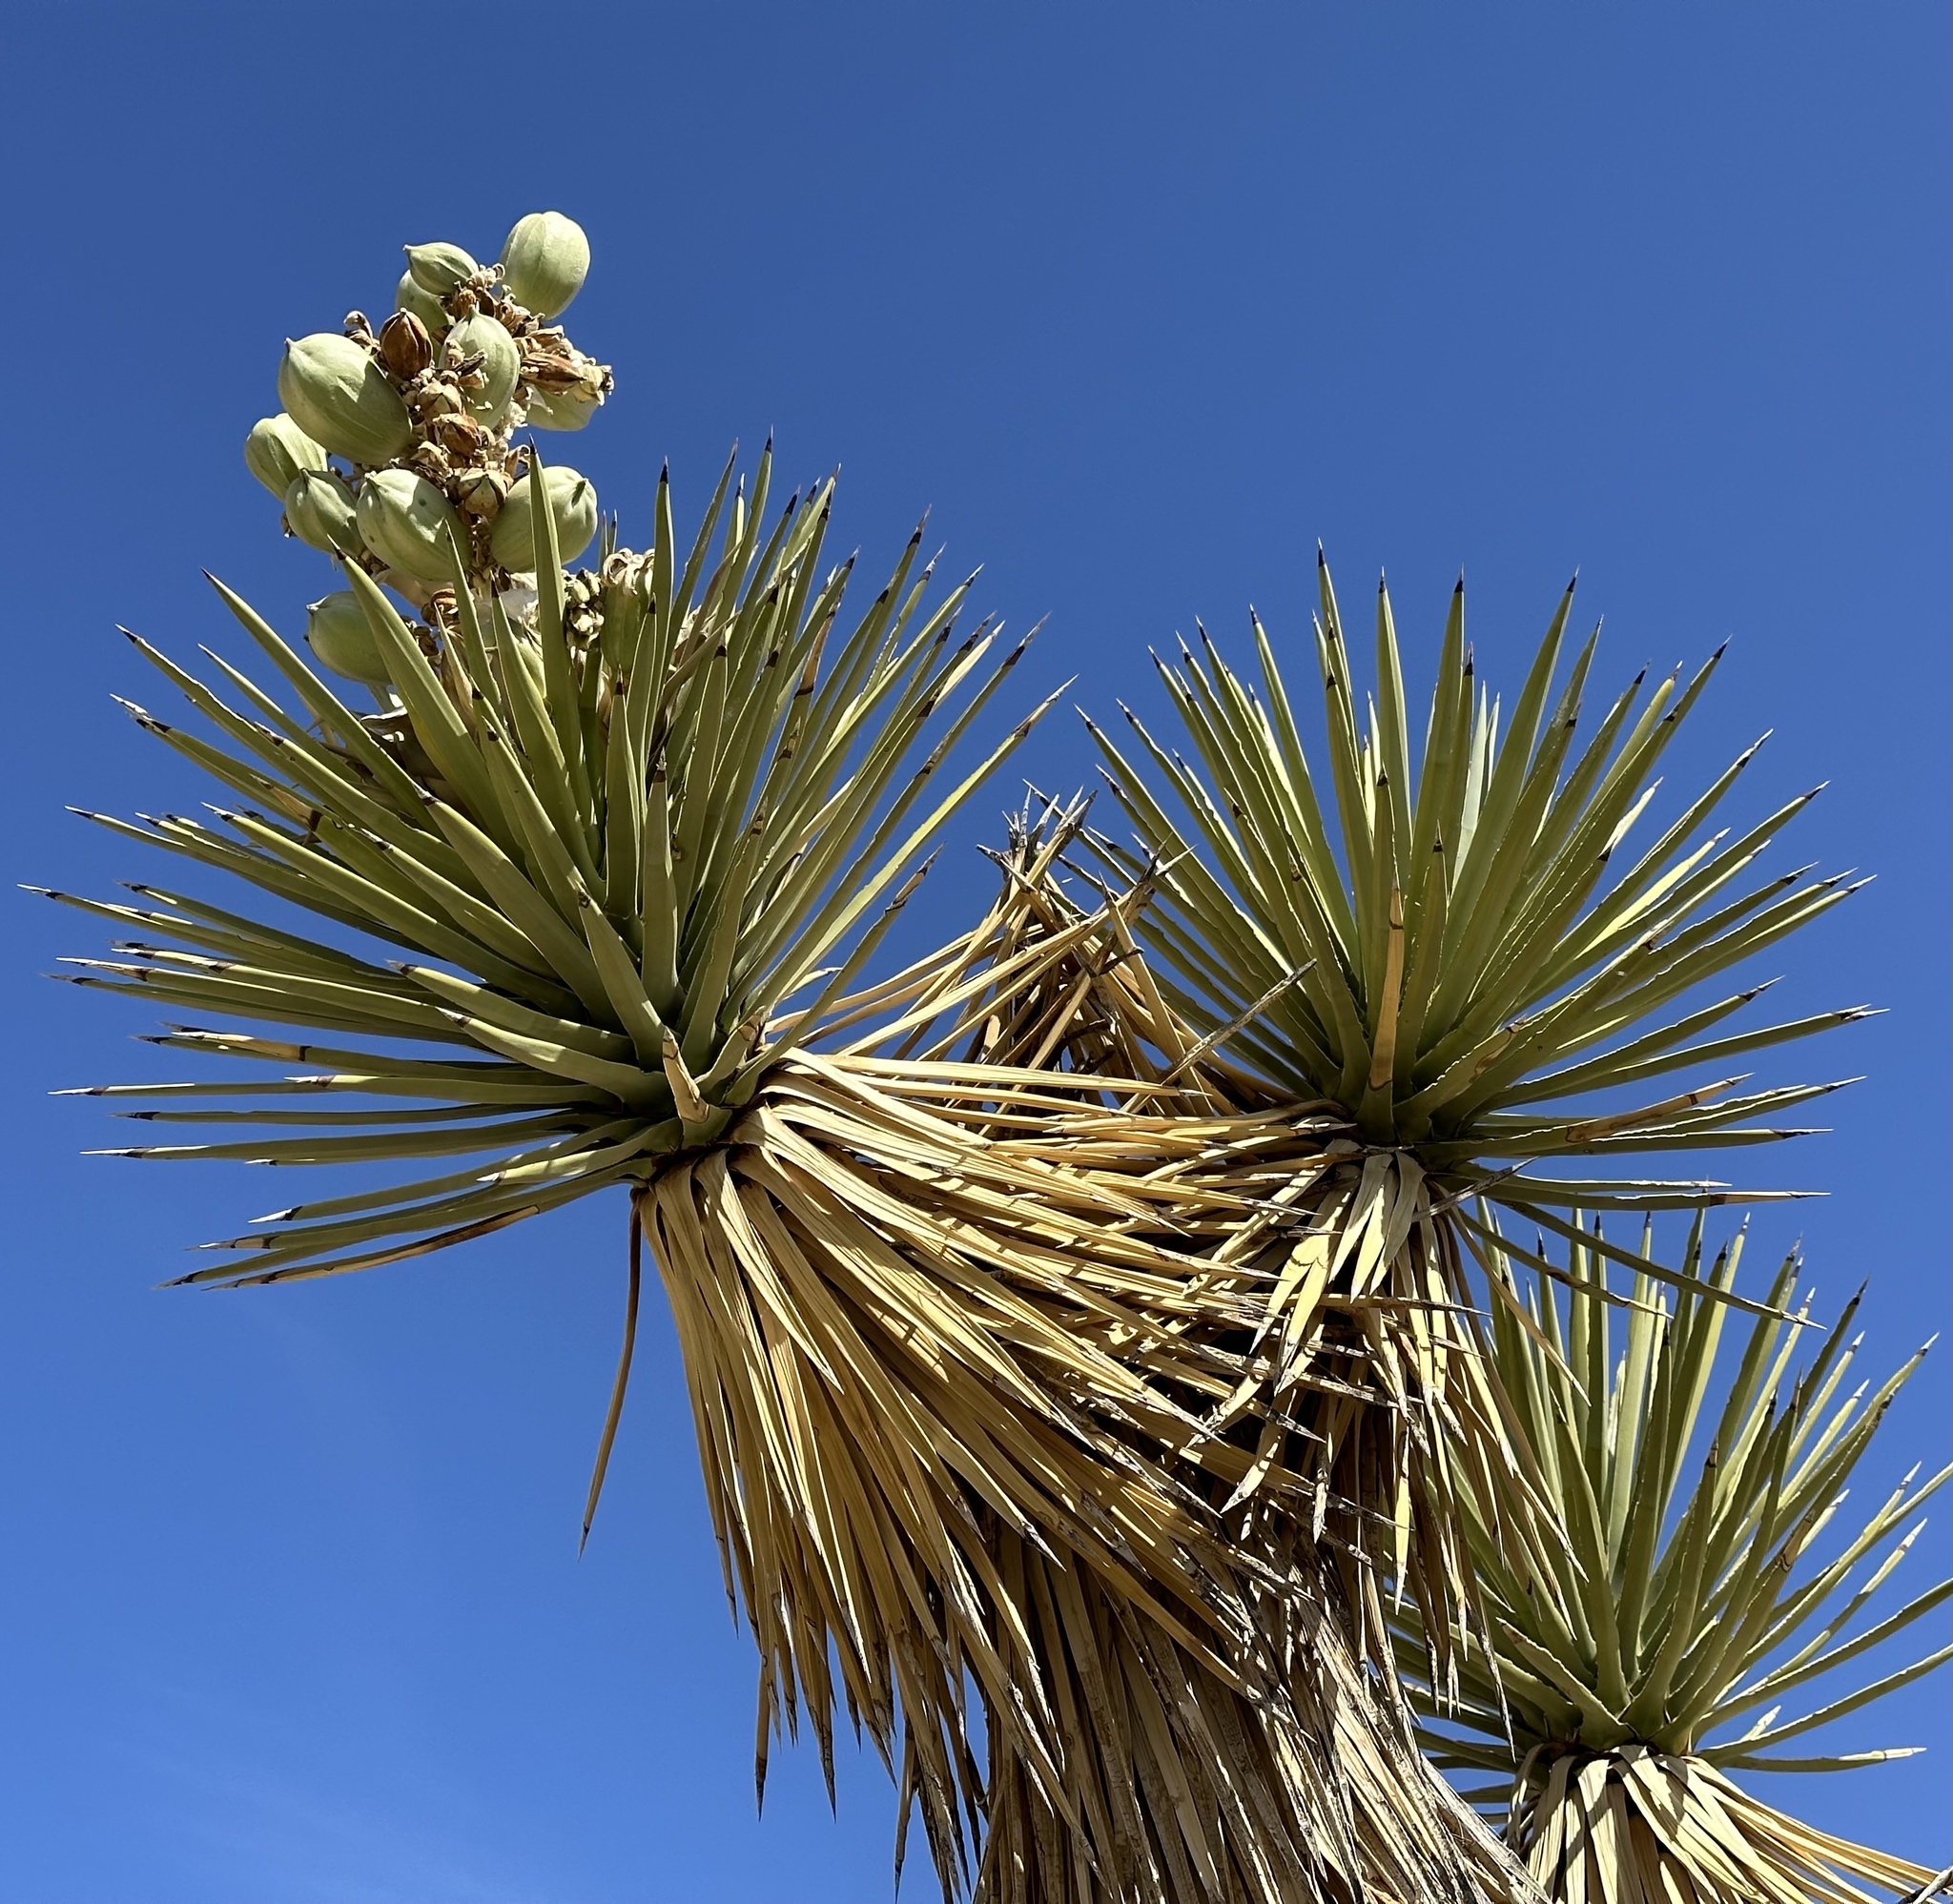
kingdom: Plantae
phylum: Tracheophyta
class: Liliopsida
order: Asparagales
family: Asparagaceae
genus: Yucca
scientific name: Yucca brevifolia
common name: Joshua tree
